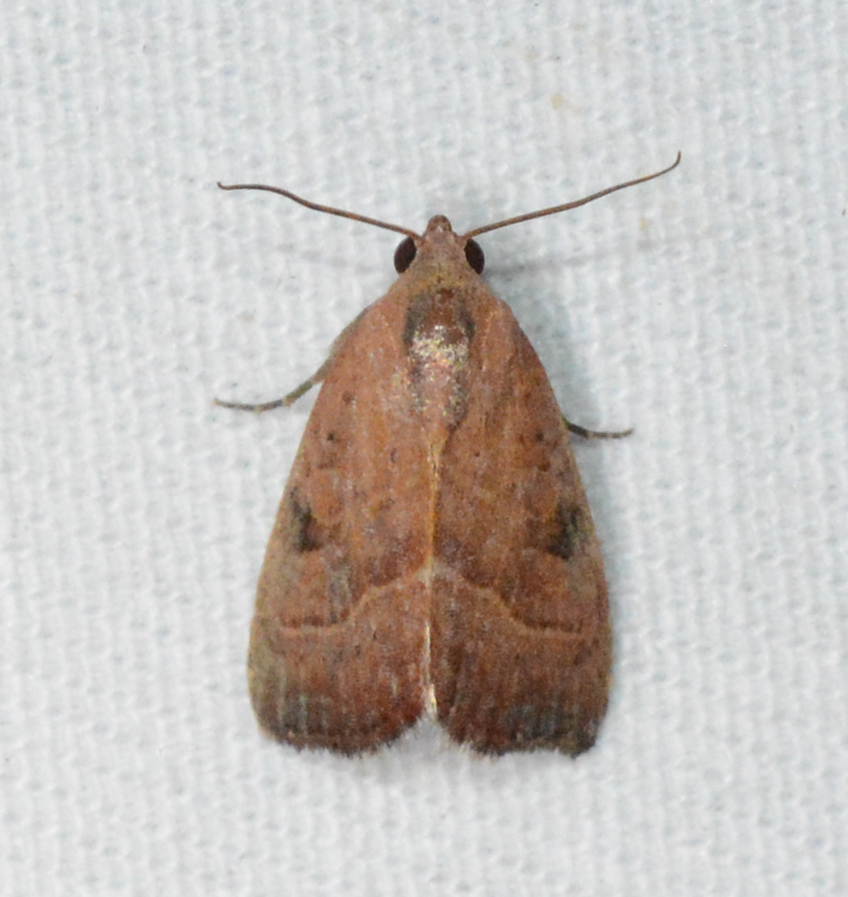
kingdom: Animalia
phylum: Arthropoda
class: Insecta
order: Lepidoptera
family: Noctuidae
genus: Galgula
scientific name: Galgula partita
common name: Wedgeling
